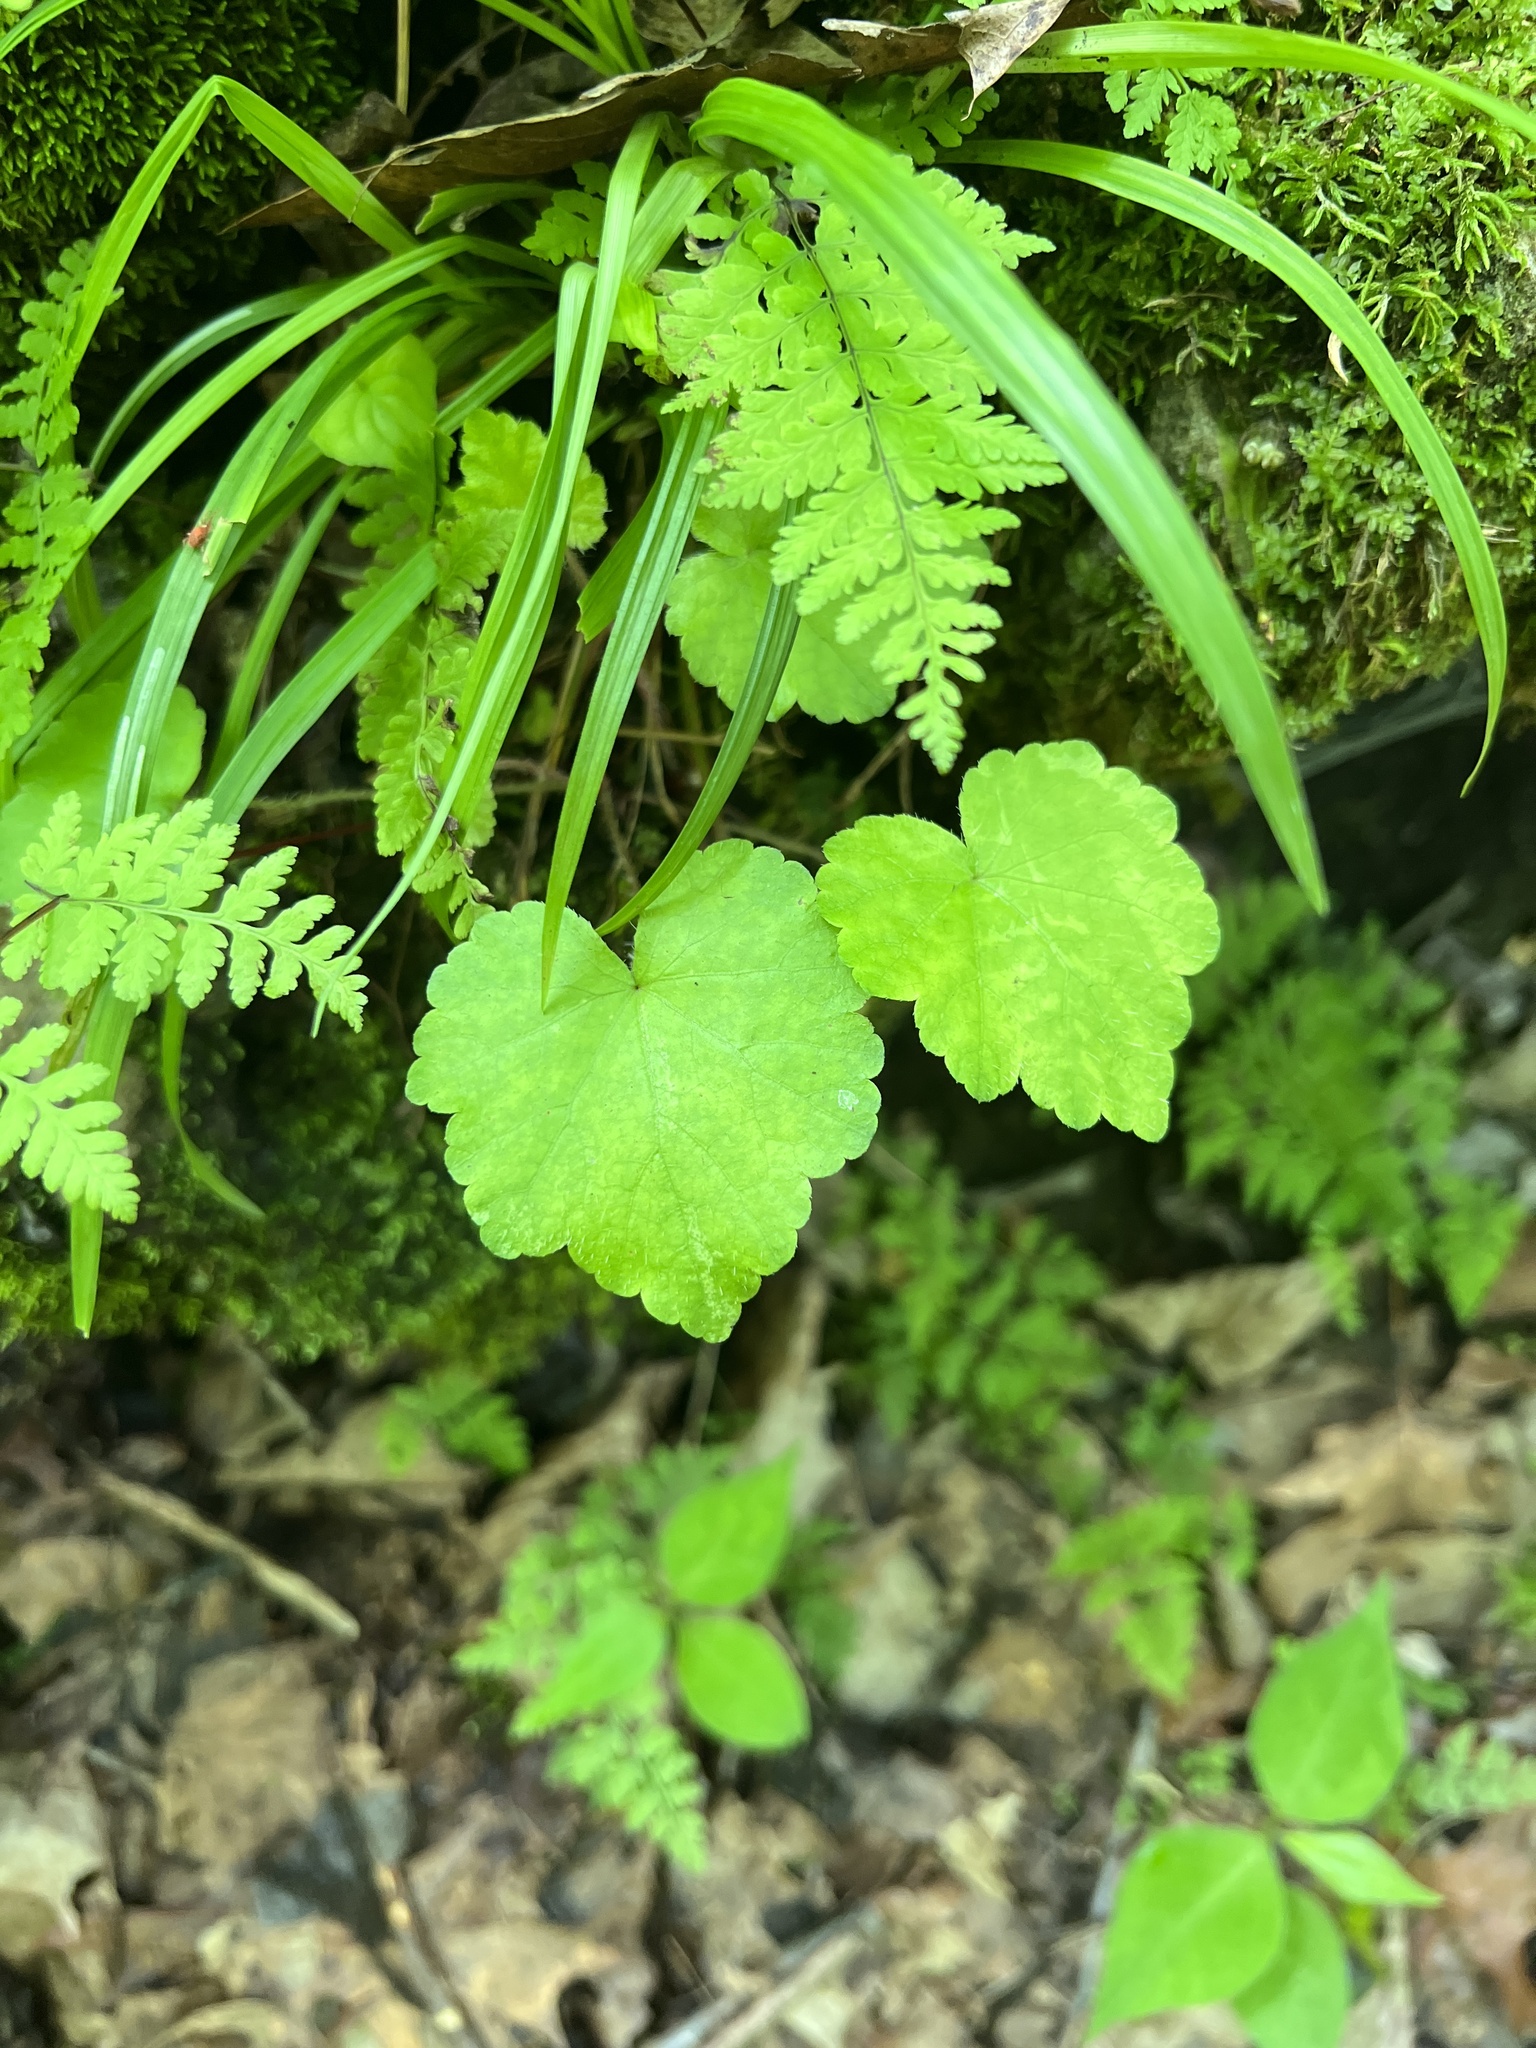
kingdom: Plantae
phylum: Tracheophyta
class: Magnoliopsida
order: Saxifragales
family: Saxifragaceae
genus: Mitella
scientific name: Mitella diphylla
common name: Coolwort
